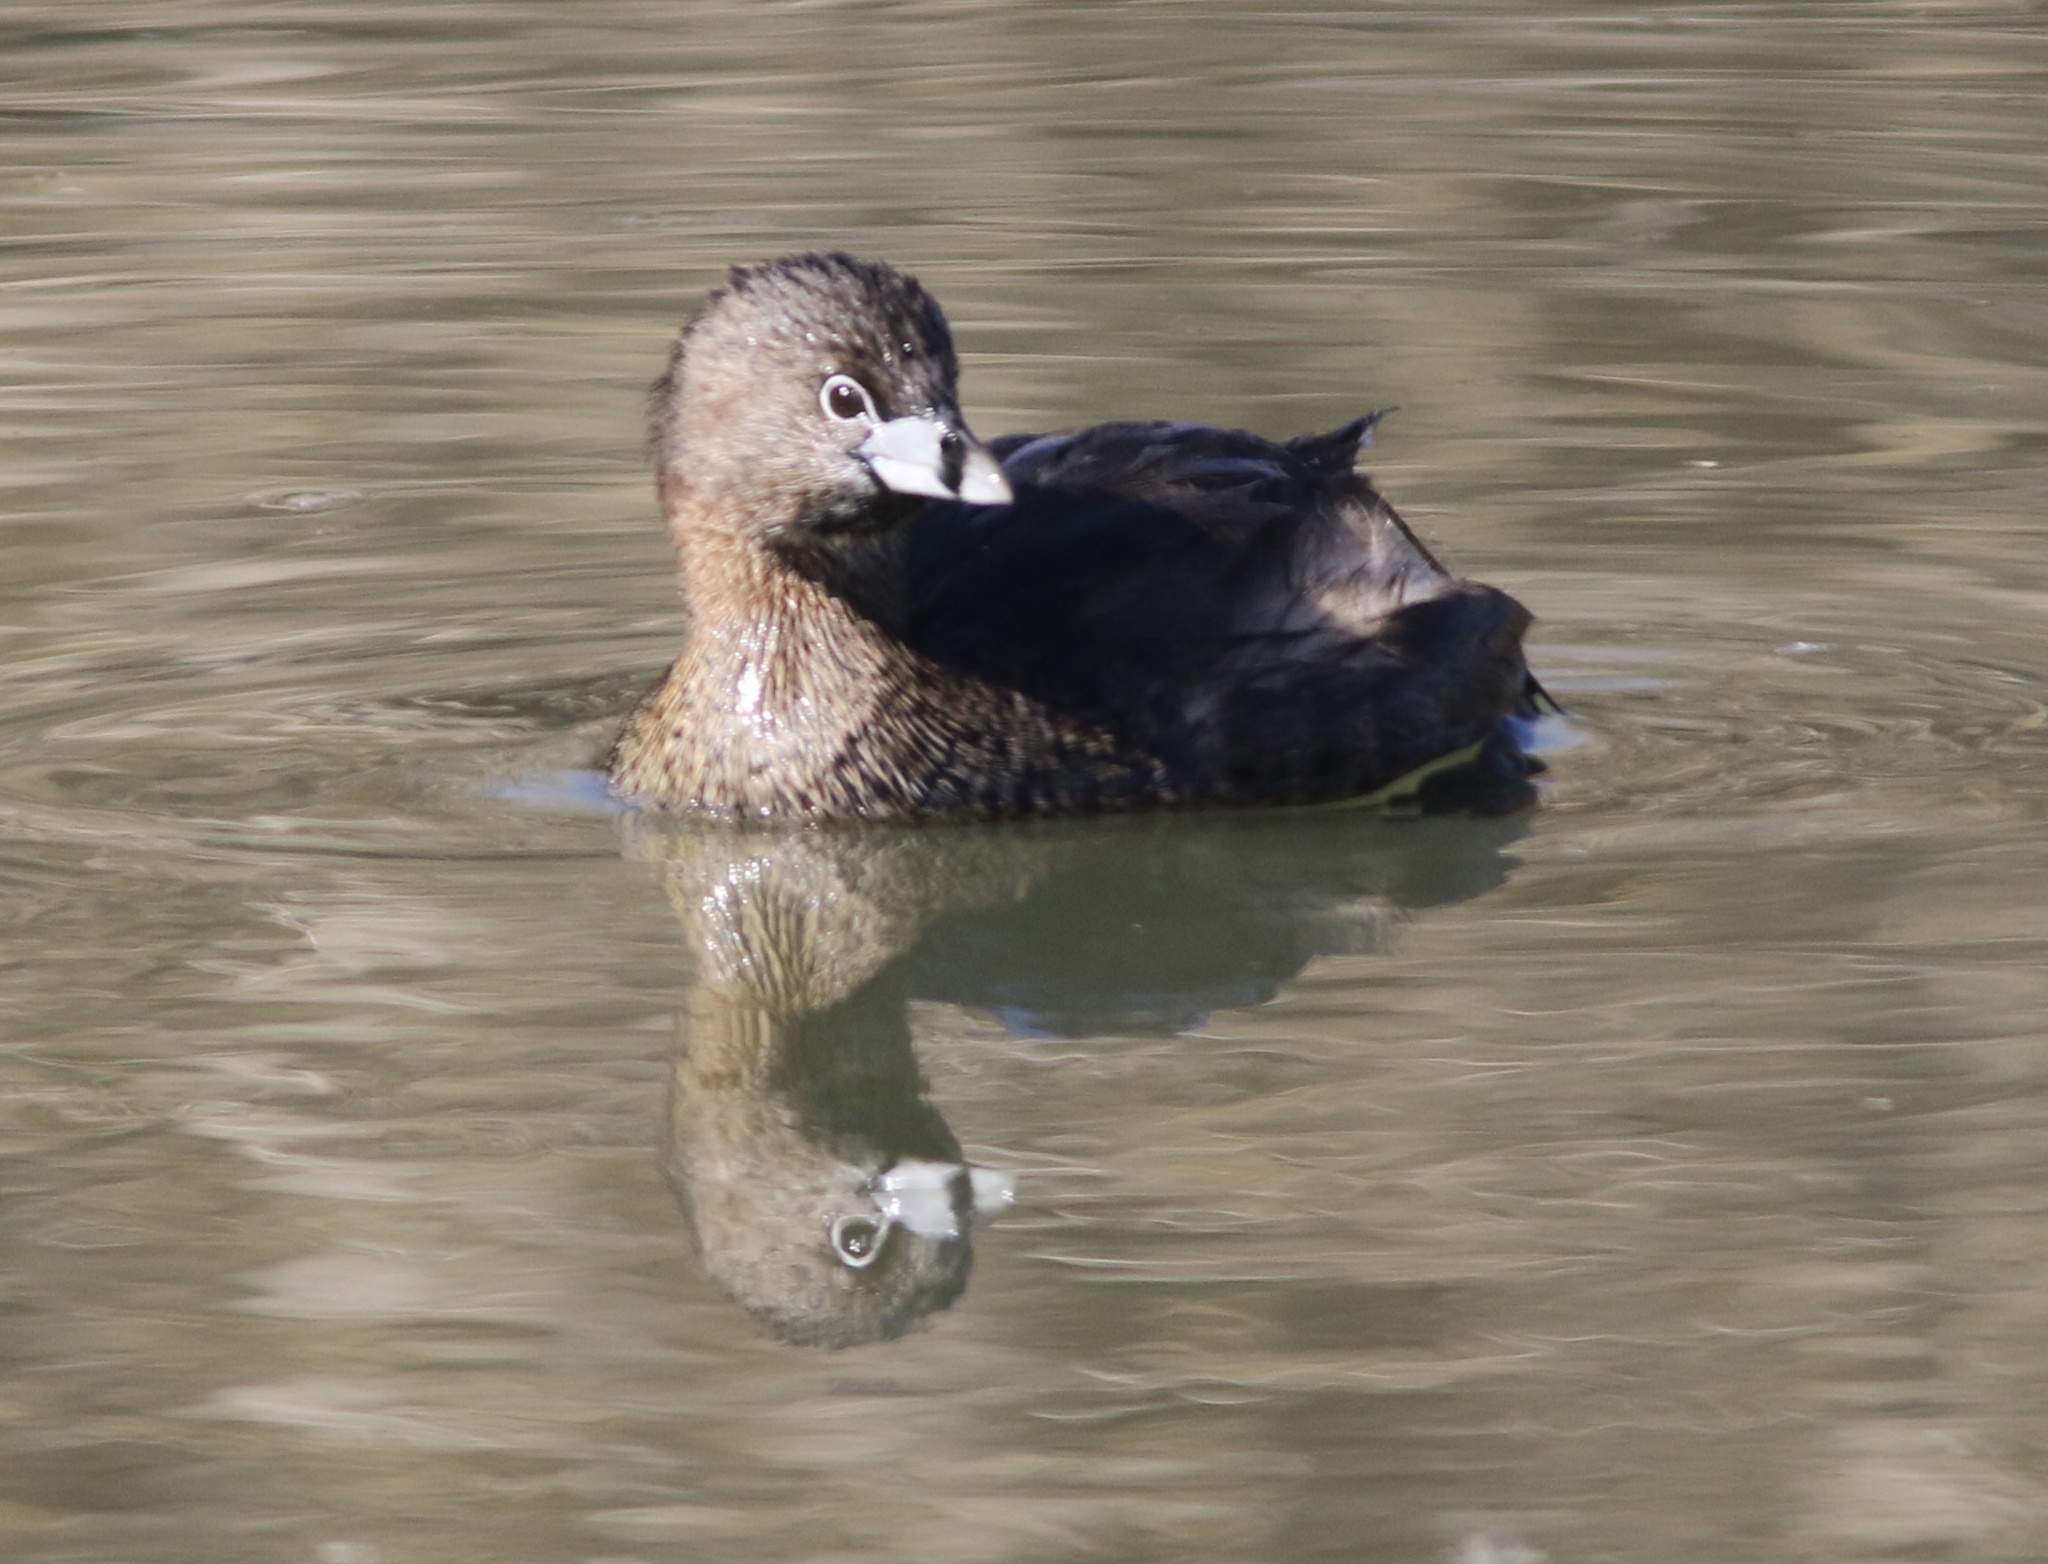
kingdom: Animalia
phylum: Chordata
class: Aves
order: Podicipediformes
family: Podicipedidae
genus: Podilymbus
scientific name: Podilymbus podiceps
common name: Pied-billed grebe
